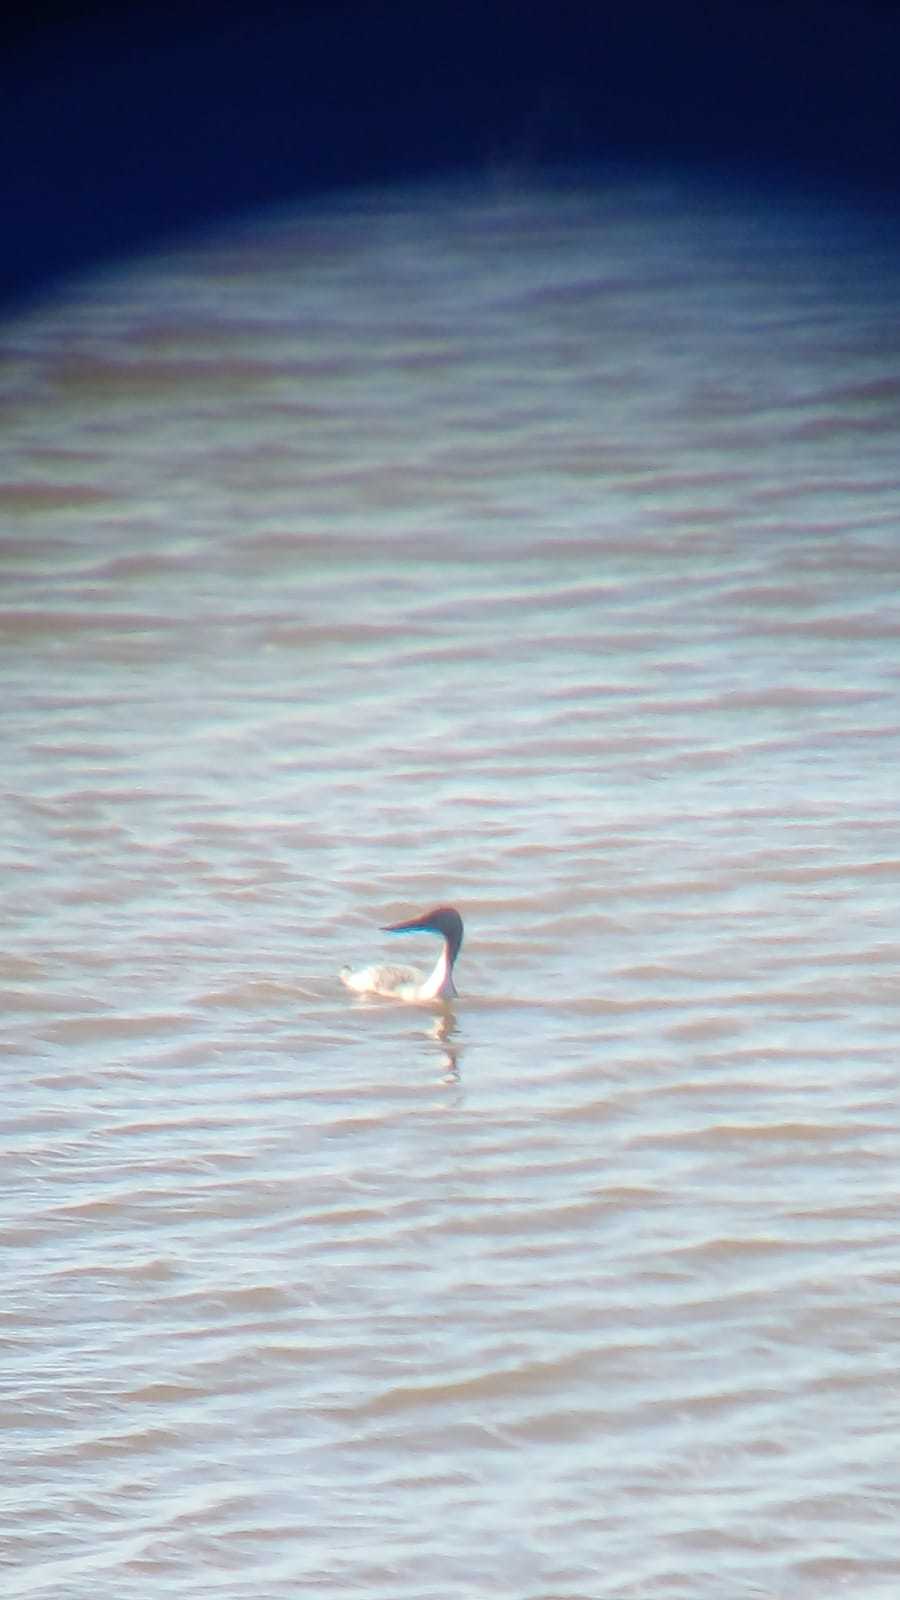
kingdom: Animalia
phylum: Chordata
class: Aves
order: Podicipediformes
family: Podicipedidae
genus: Podiceps
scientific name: Podiceps major
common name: Great grebe
